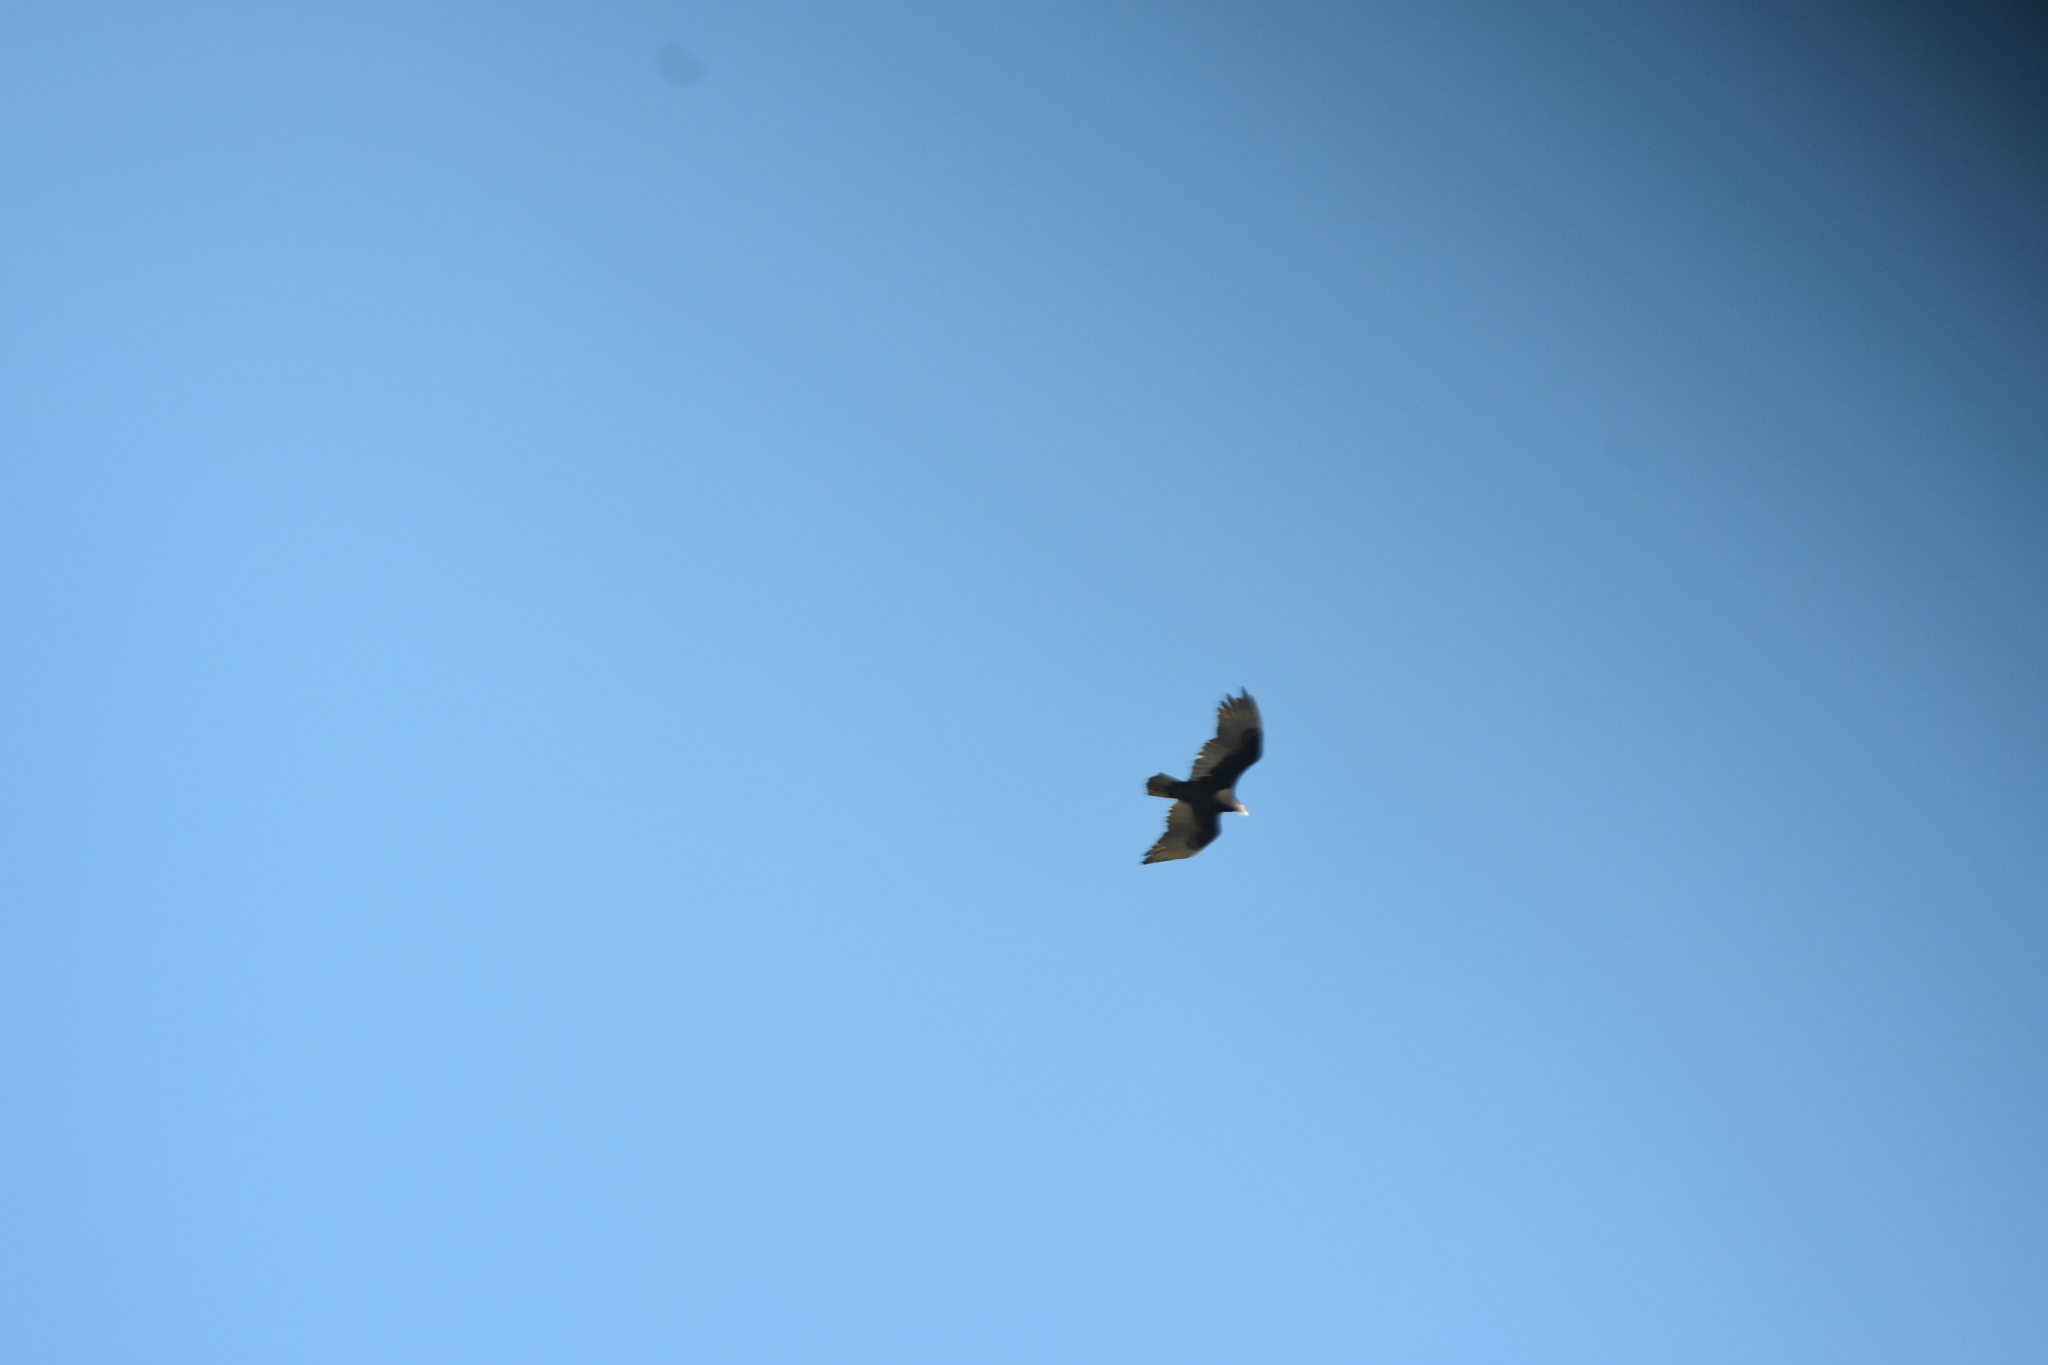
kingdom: Animalia
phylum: Chordata
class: Aves
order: Accipitriformes
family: Cathartidae
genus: Cathartes
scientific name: Cathartes aura
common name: Turkey vulture
